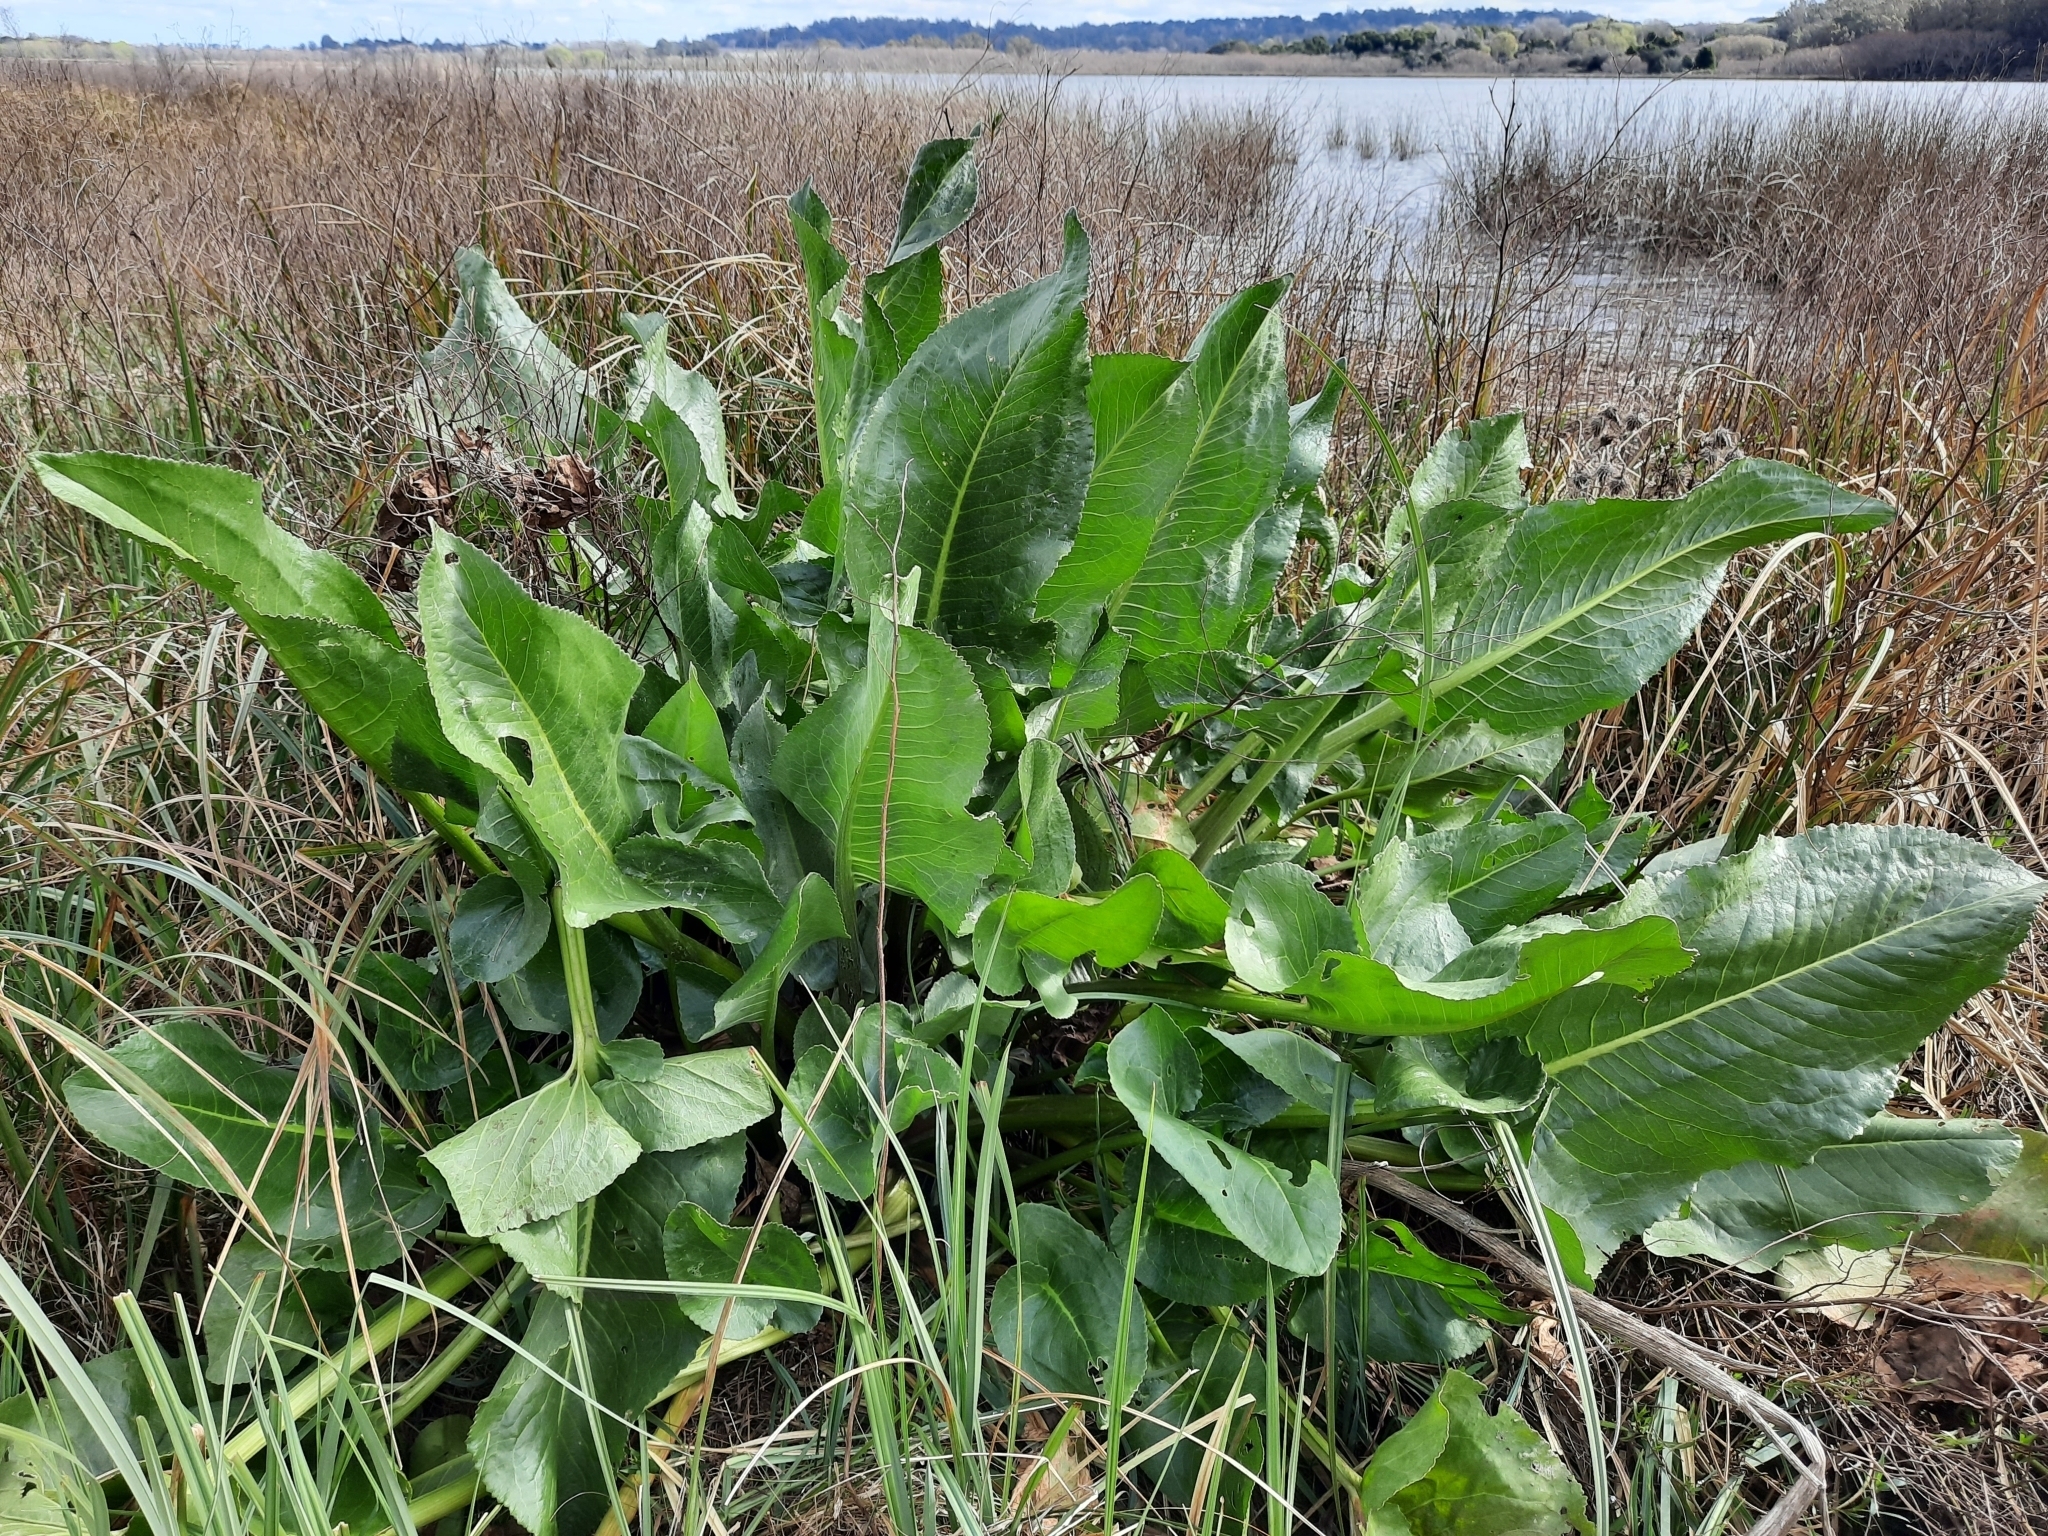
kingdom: Plantae
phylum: Tracheophyta
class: Magnoliopsida
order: Asterales
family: Asteraceae
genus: Senecio
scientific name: Senecio bonariensis
